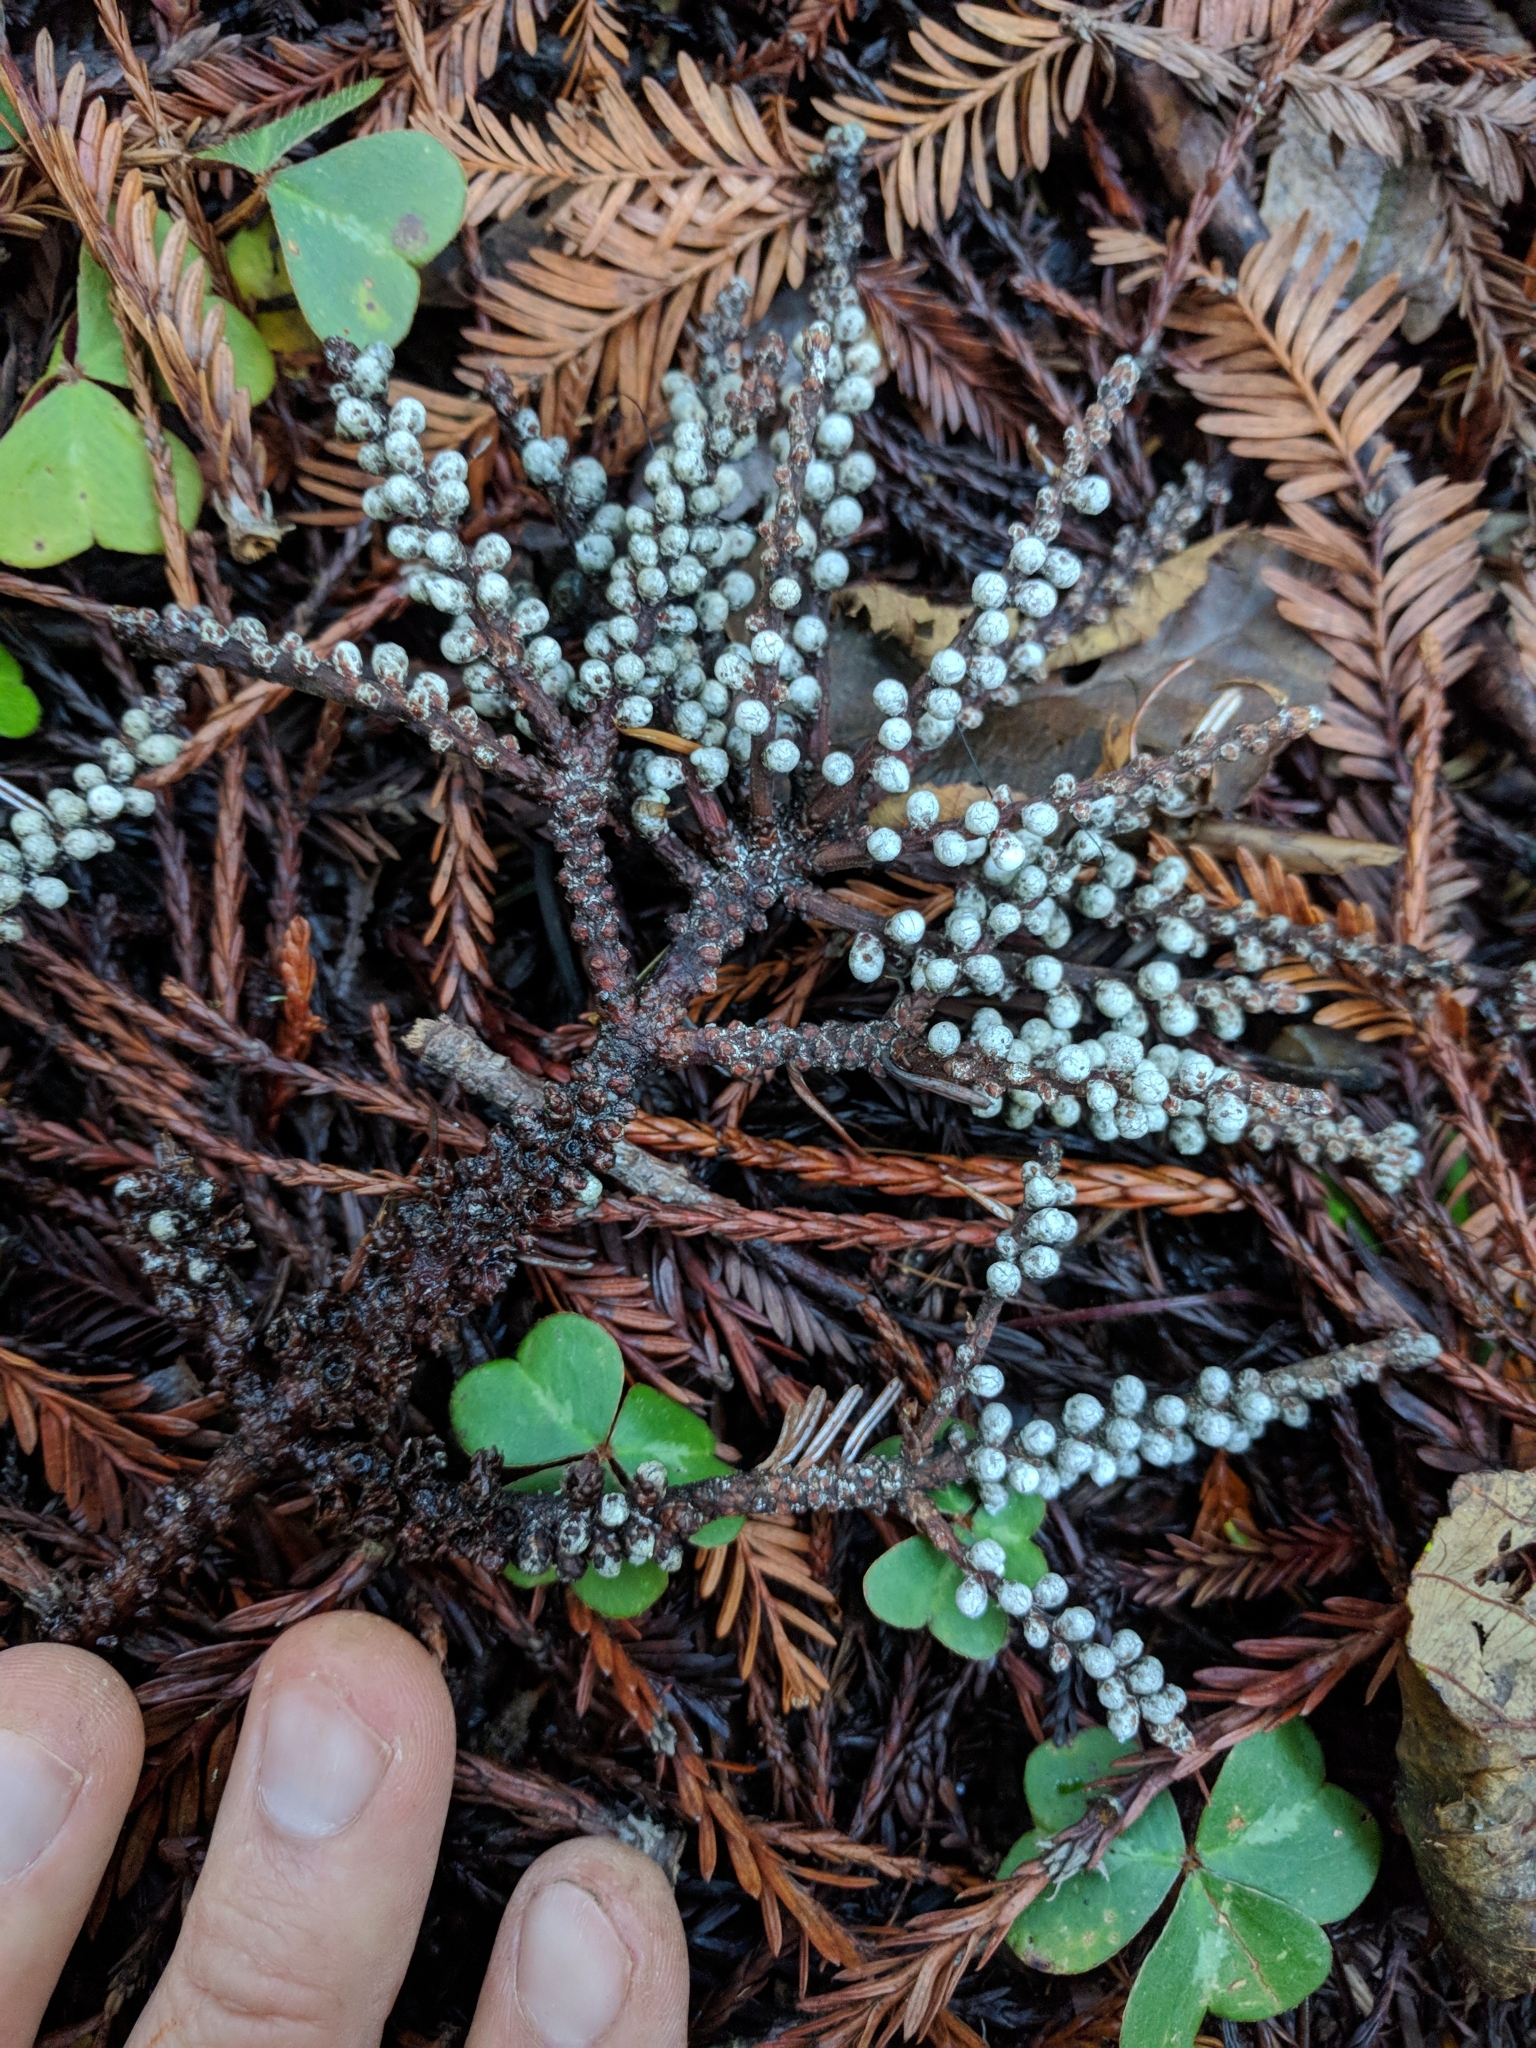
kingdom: Plantae
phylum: Tracheophyta
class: Pinopsida
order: Pinales
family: Cupressaceae
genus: Sequoia
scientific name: Sequoia sempervirens
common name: Coast redwood
